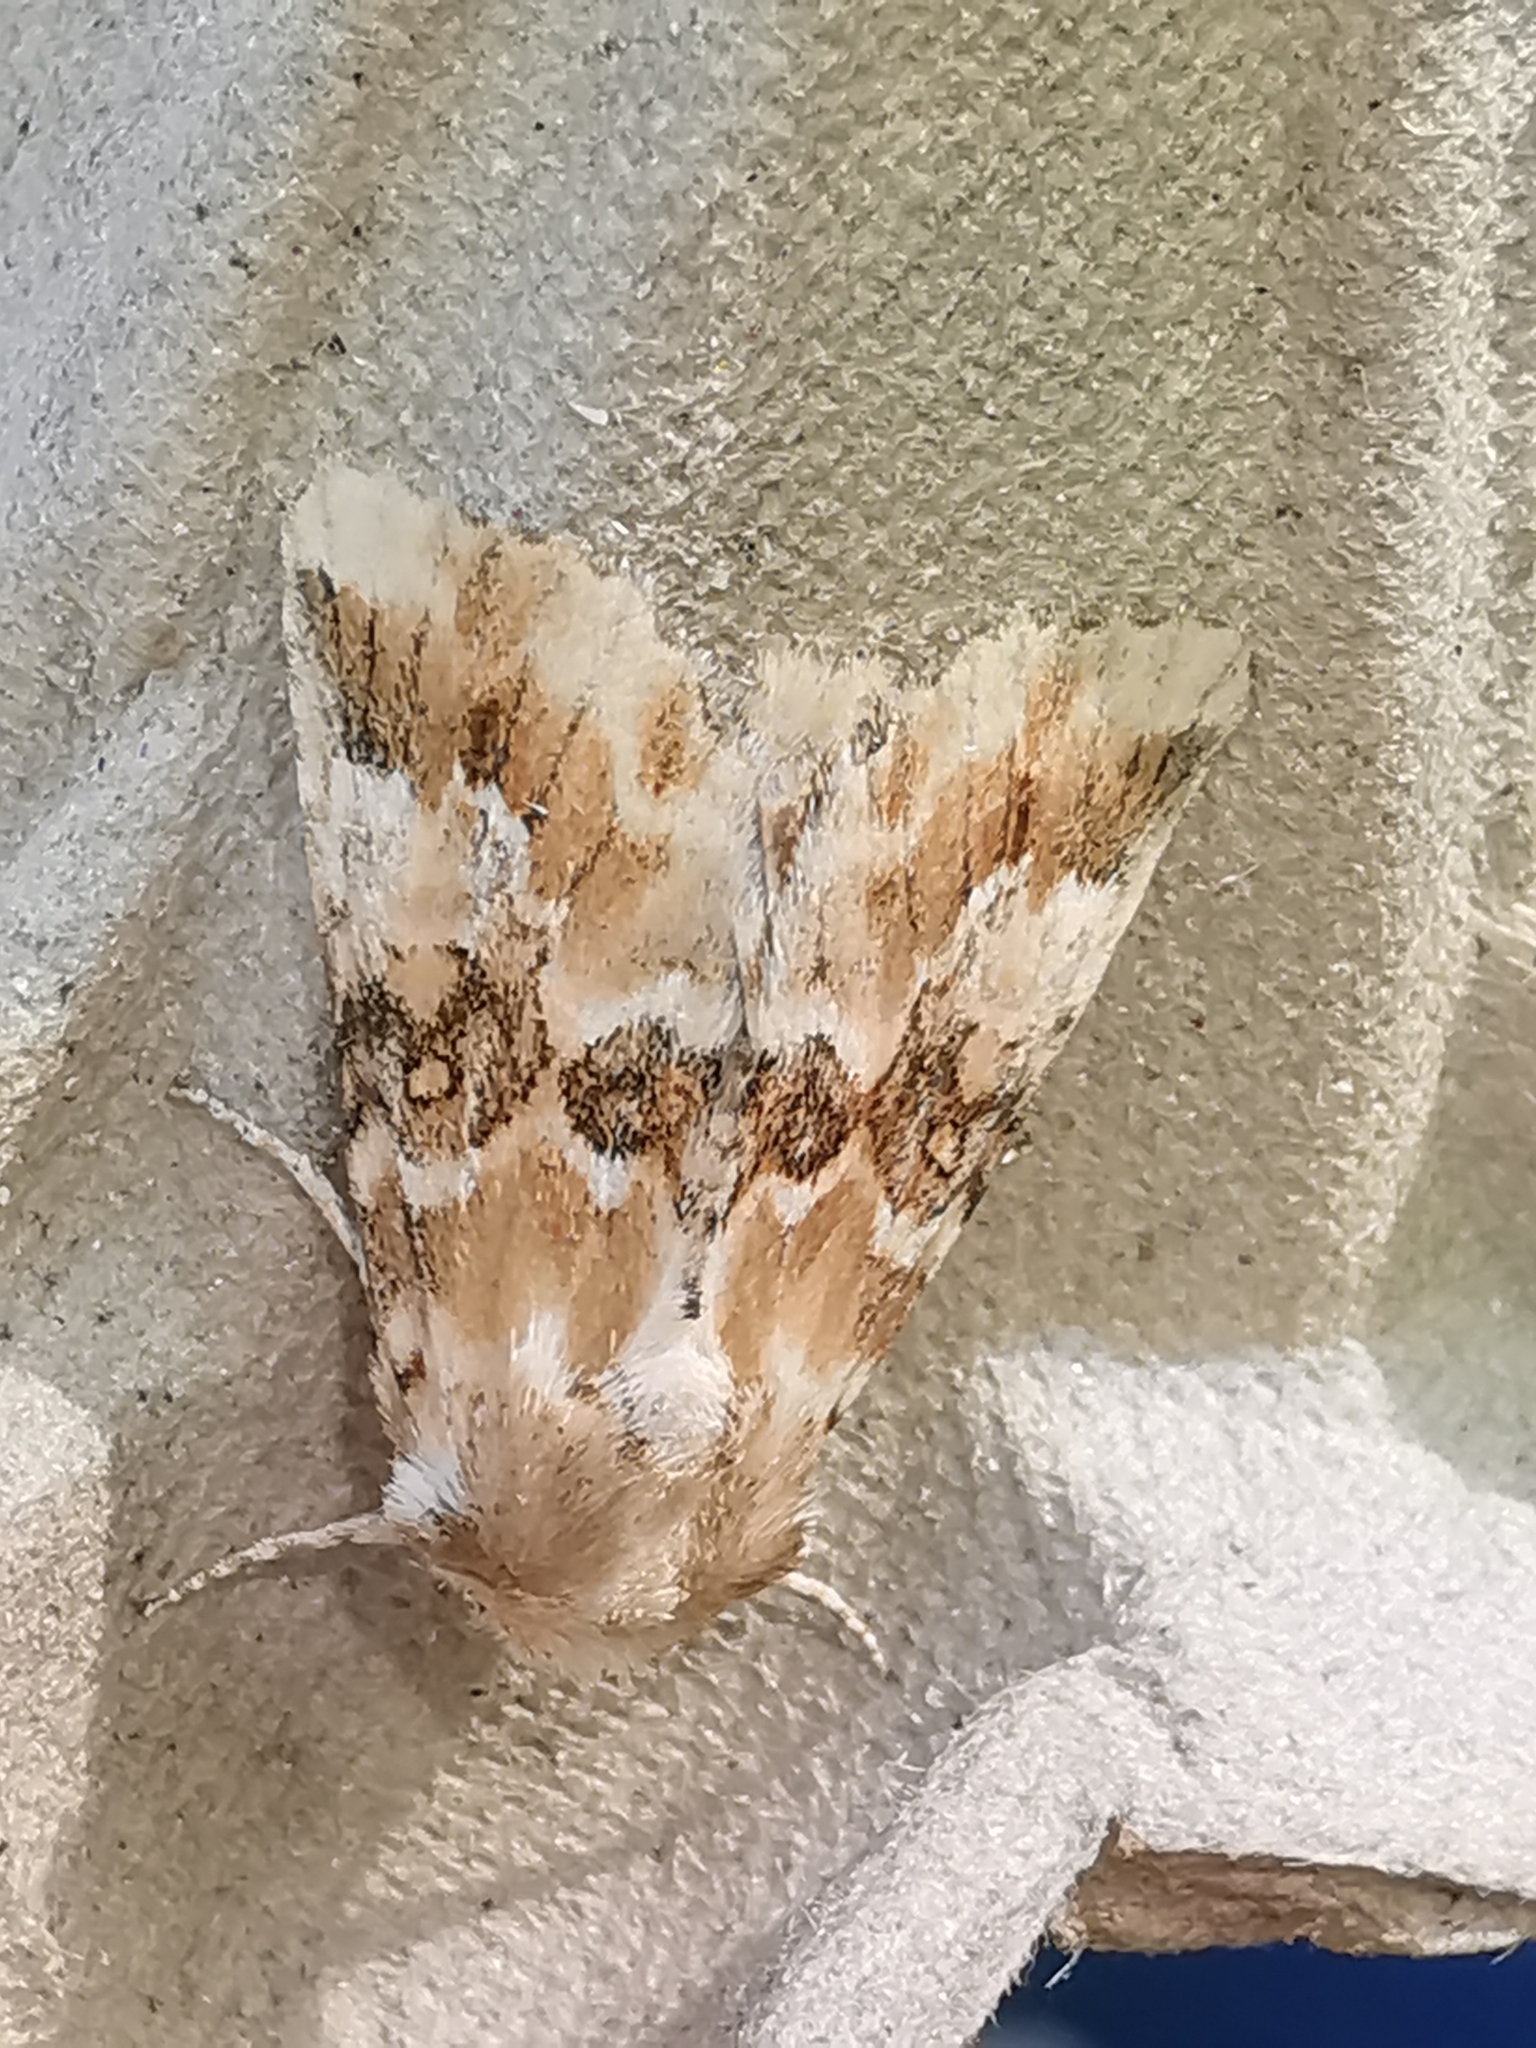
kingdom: Animalia
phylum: Arthropoda
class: Insecta
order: Lepidoptera
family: Noctuidae
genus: Eremobia
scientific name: Eremobia ochroleuca
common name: Dusky sallow
